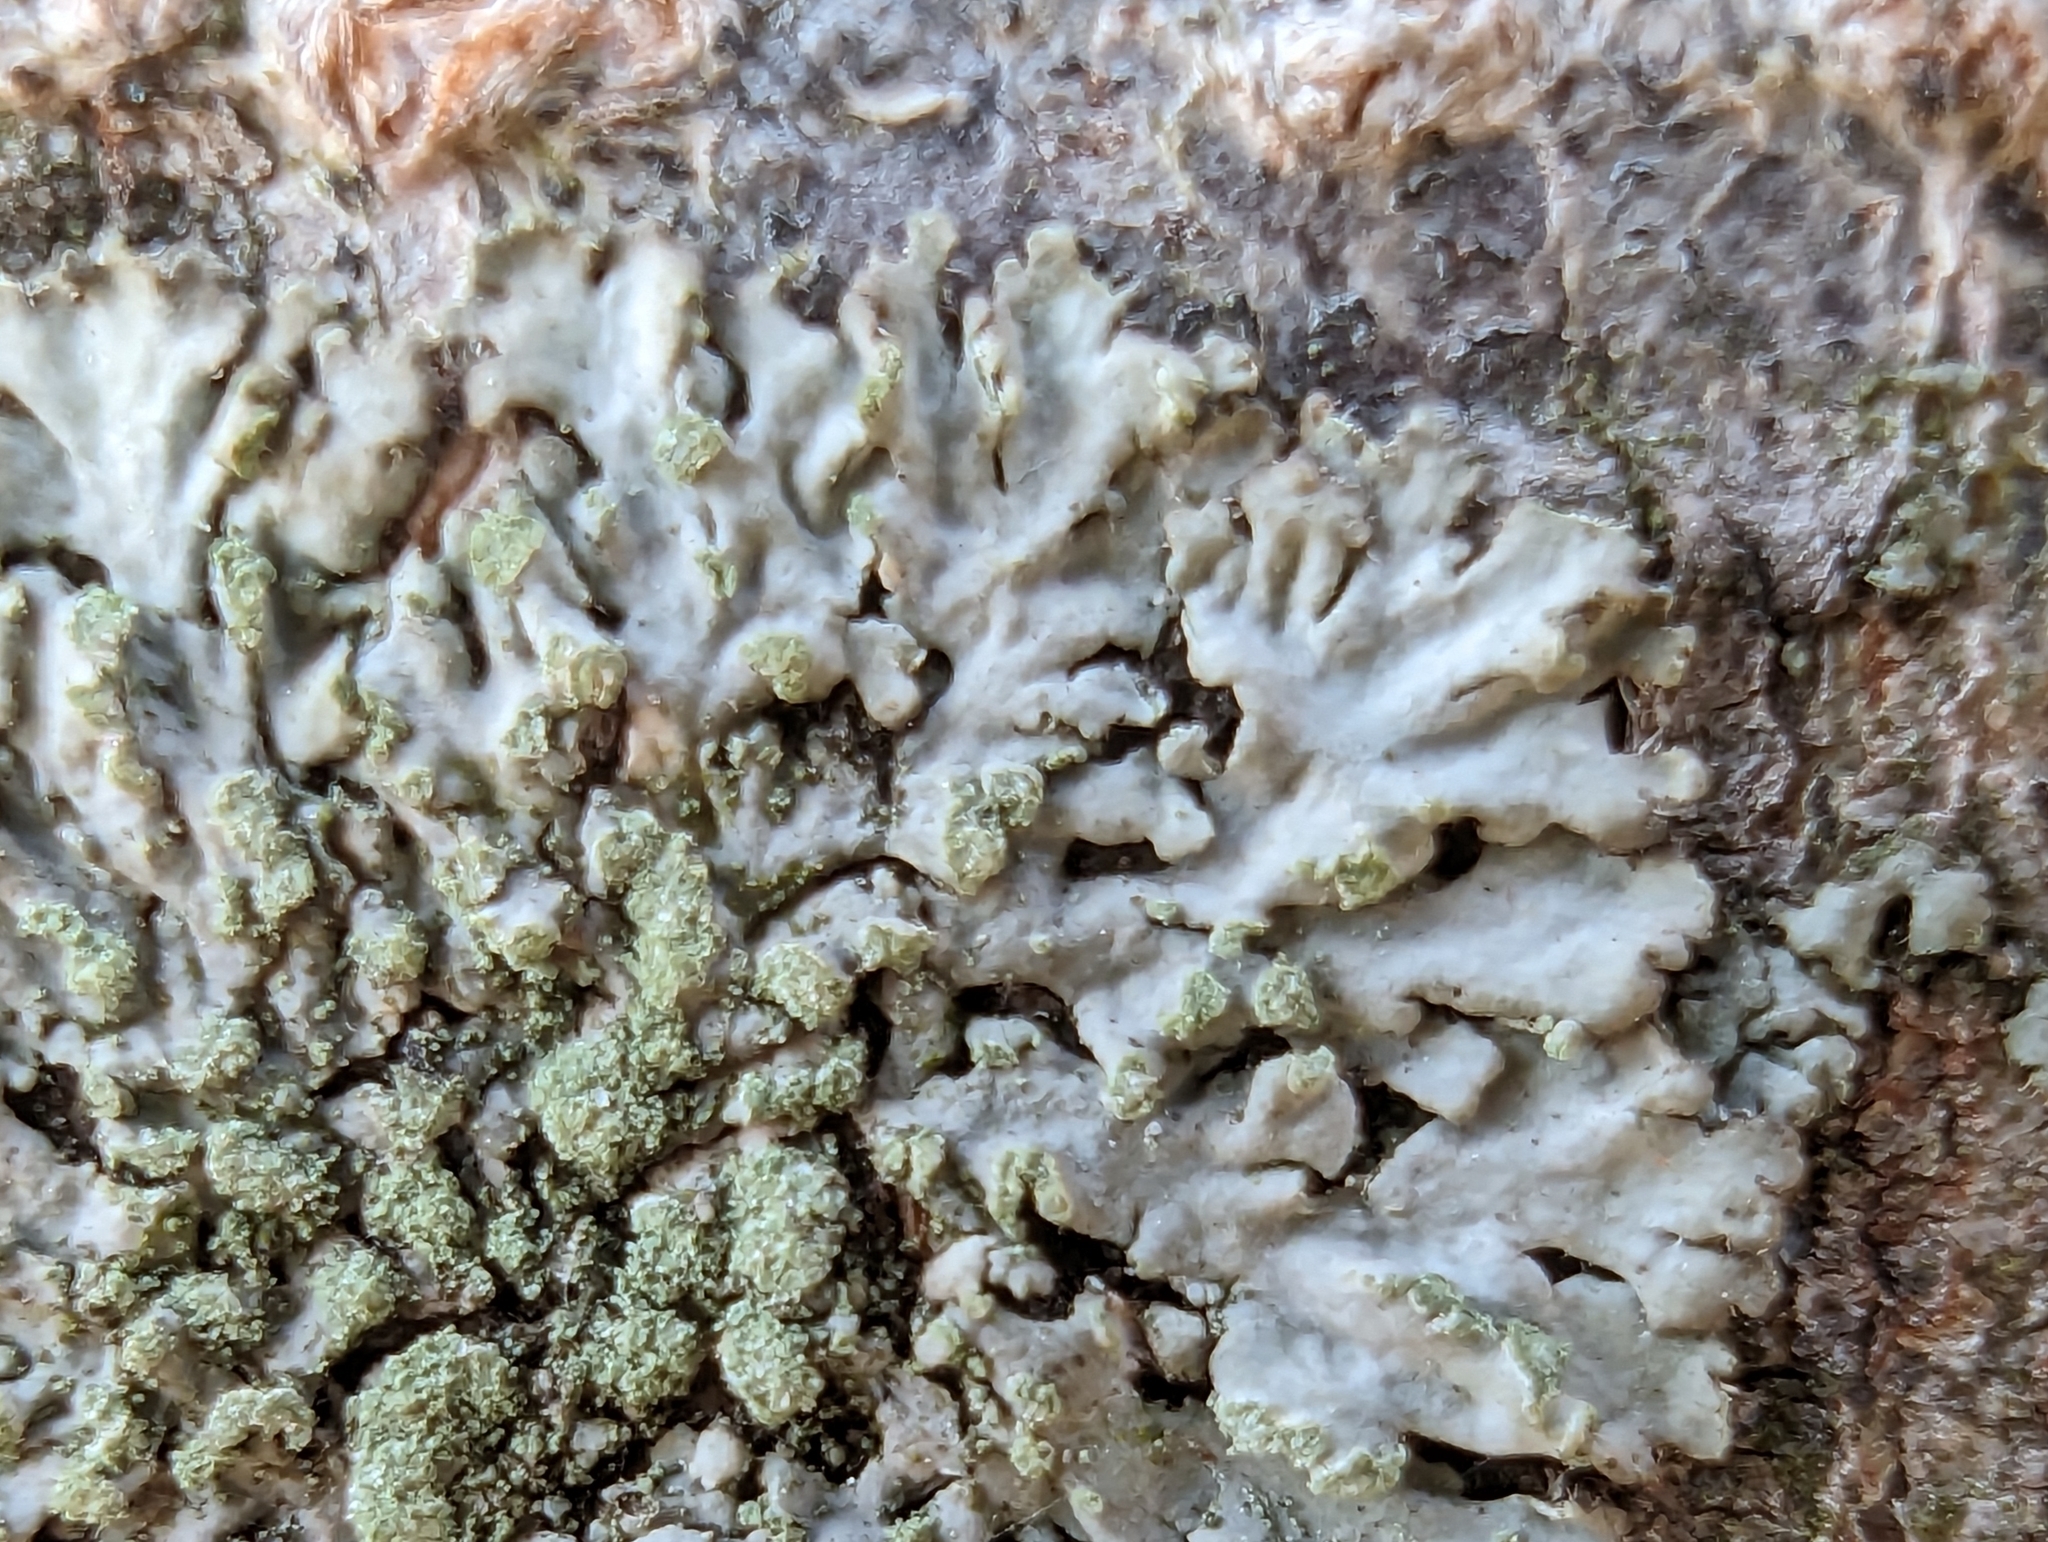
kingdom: Fungi
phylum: Ascomycota
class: Lecanoromycetes
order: Caliciales
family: Physciaceae
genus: Phaeophyscia
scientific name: Phaeophyscia orbicularis
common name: Mealy shadow lichen
